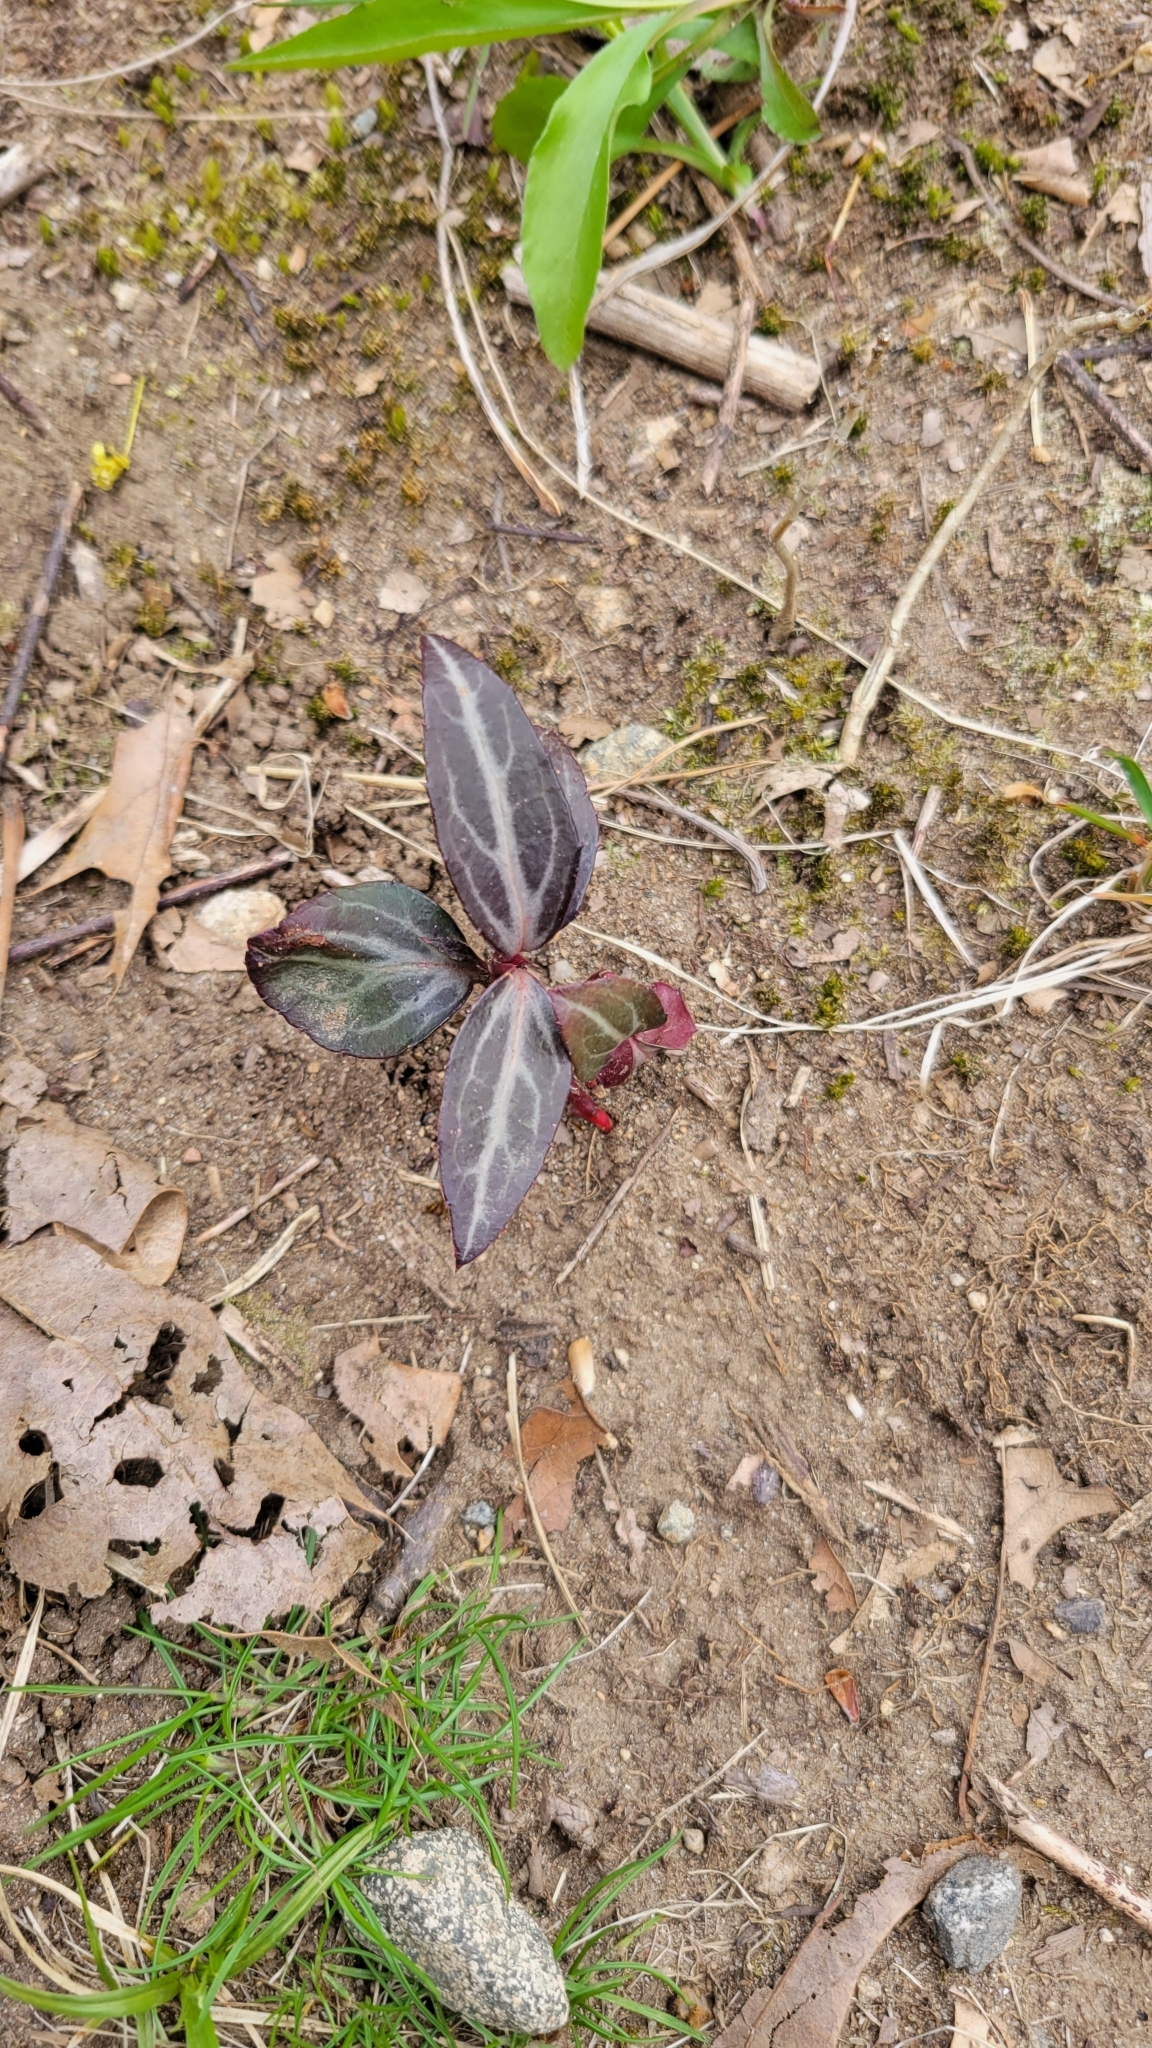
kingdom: Plantae
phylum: Tracheophyta
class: Magnoliopsida
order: Ericales
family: Ericaceae
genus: Chimaphila
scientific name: Chimaphila maculata
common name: Spotted pipsissewa
